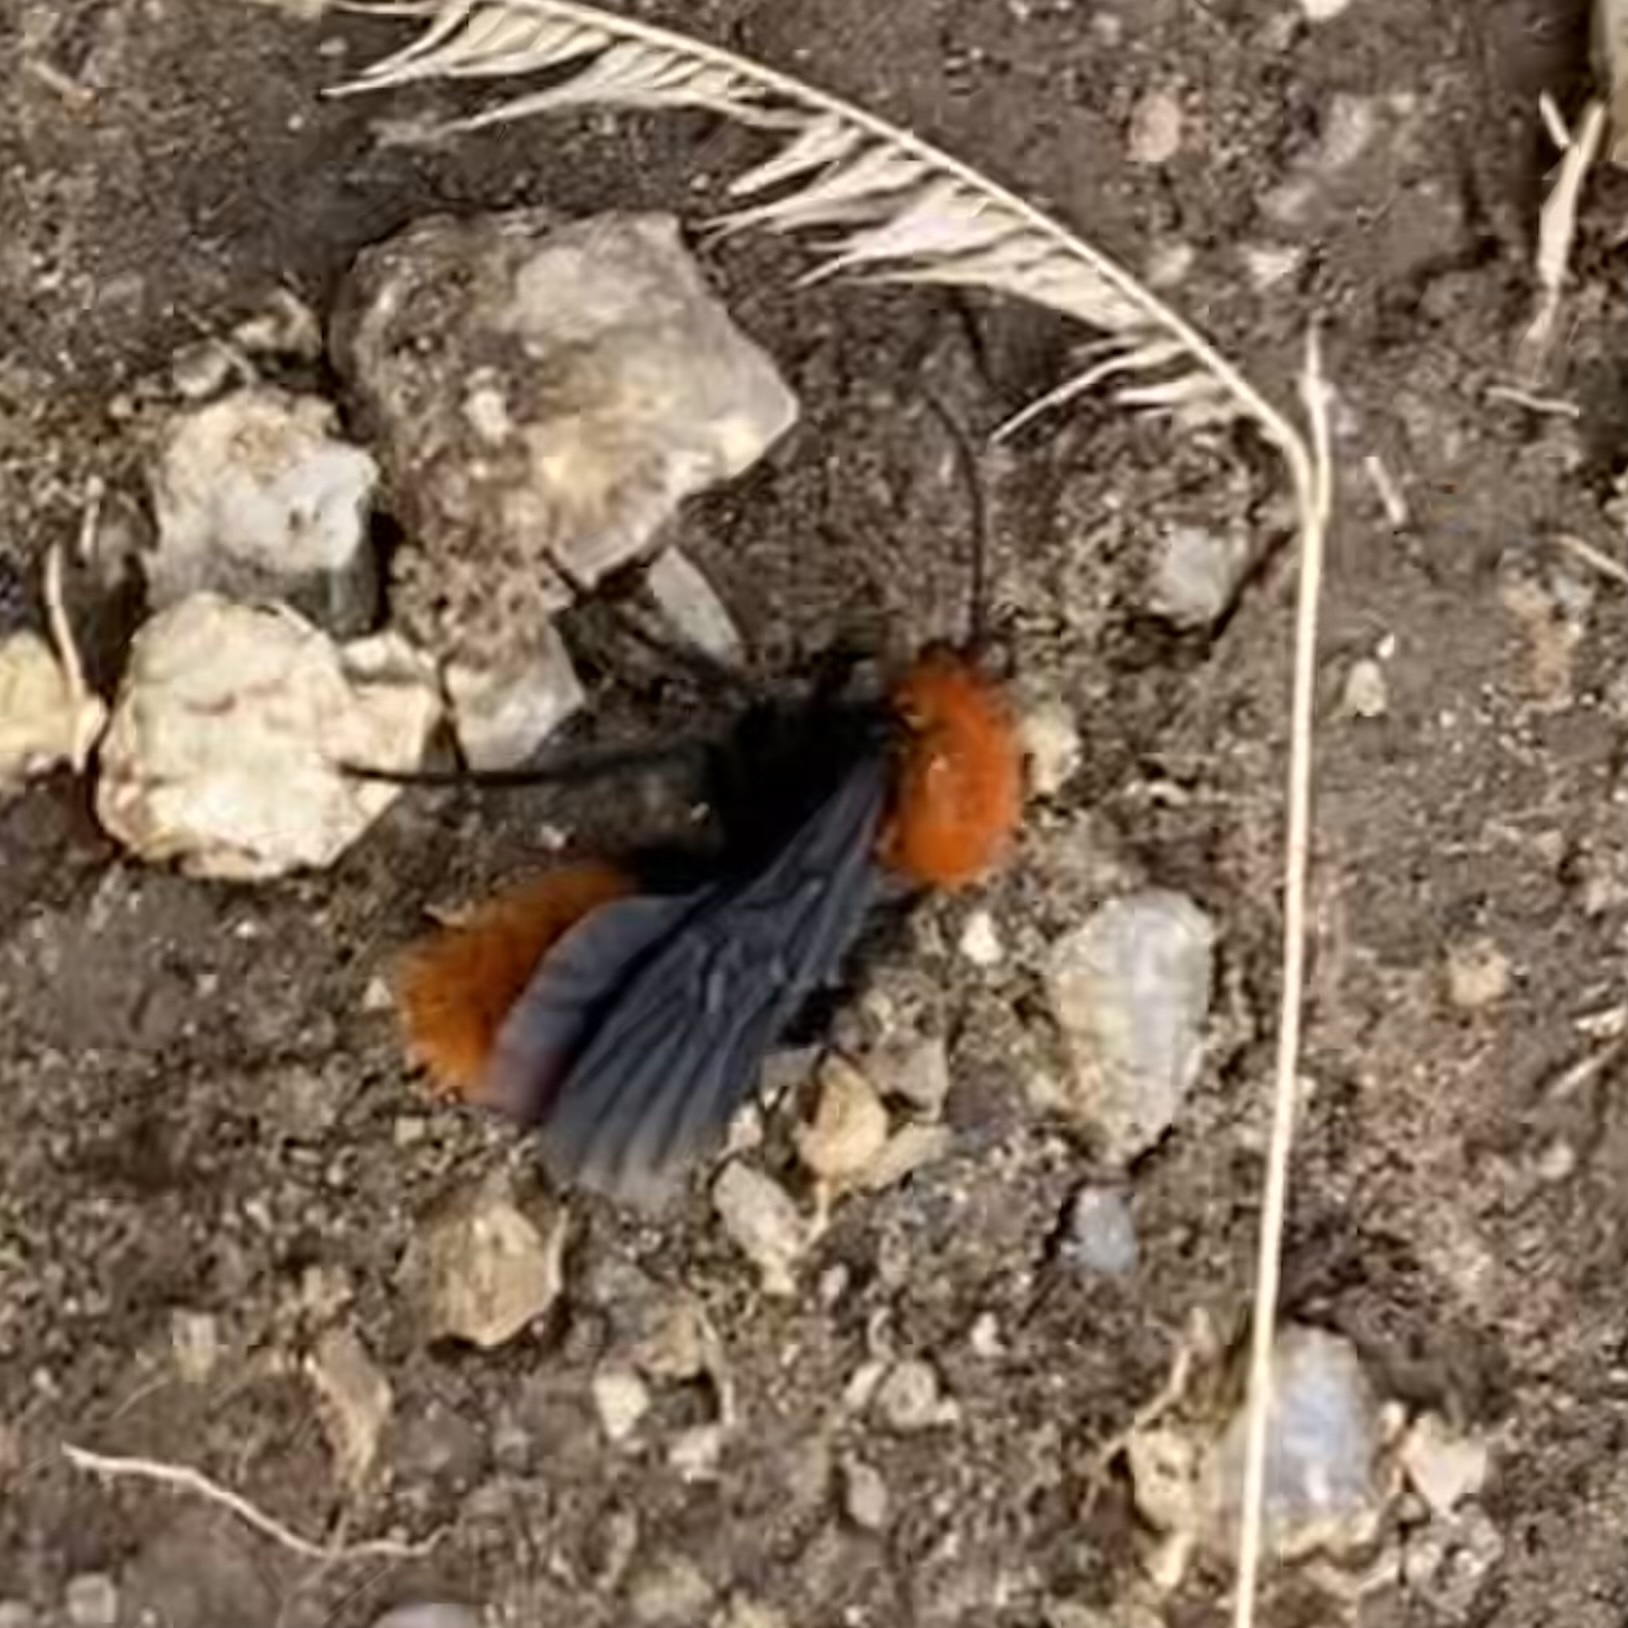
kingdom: Animalia
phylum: Arthropoda
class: Insecta
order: Hymenoptera
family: Mutillidae
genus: Dasymutilla
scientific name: Dasymutilla vestita
